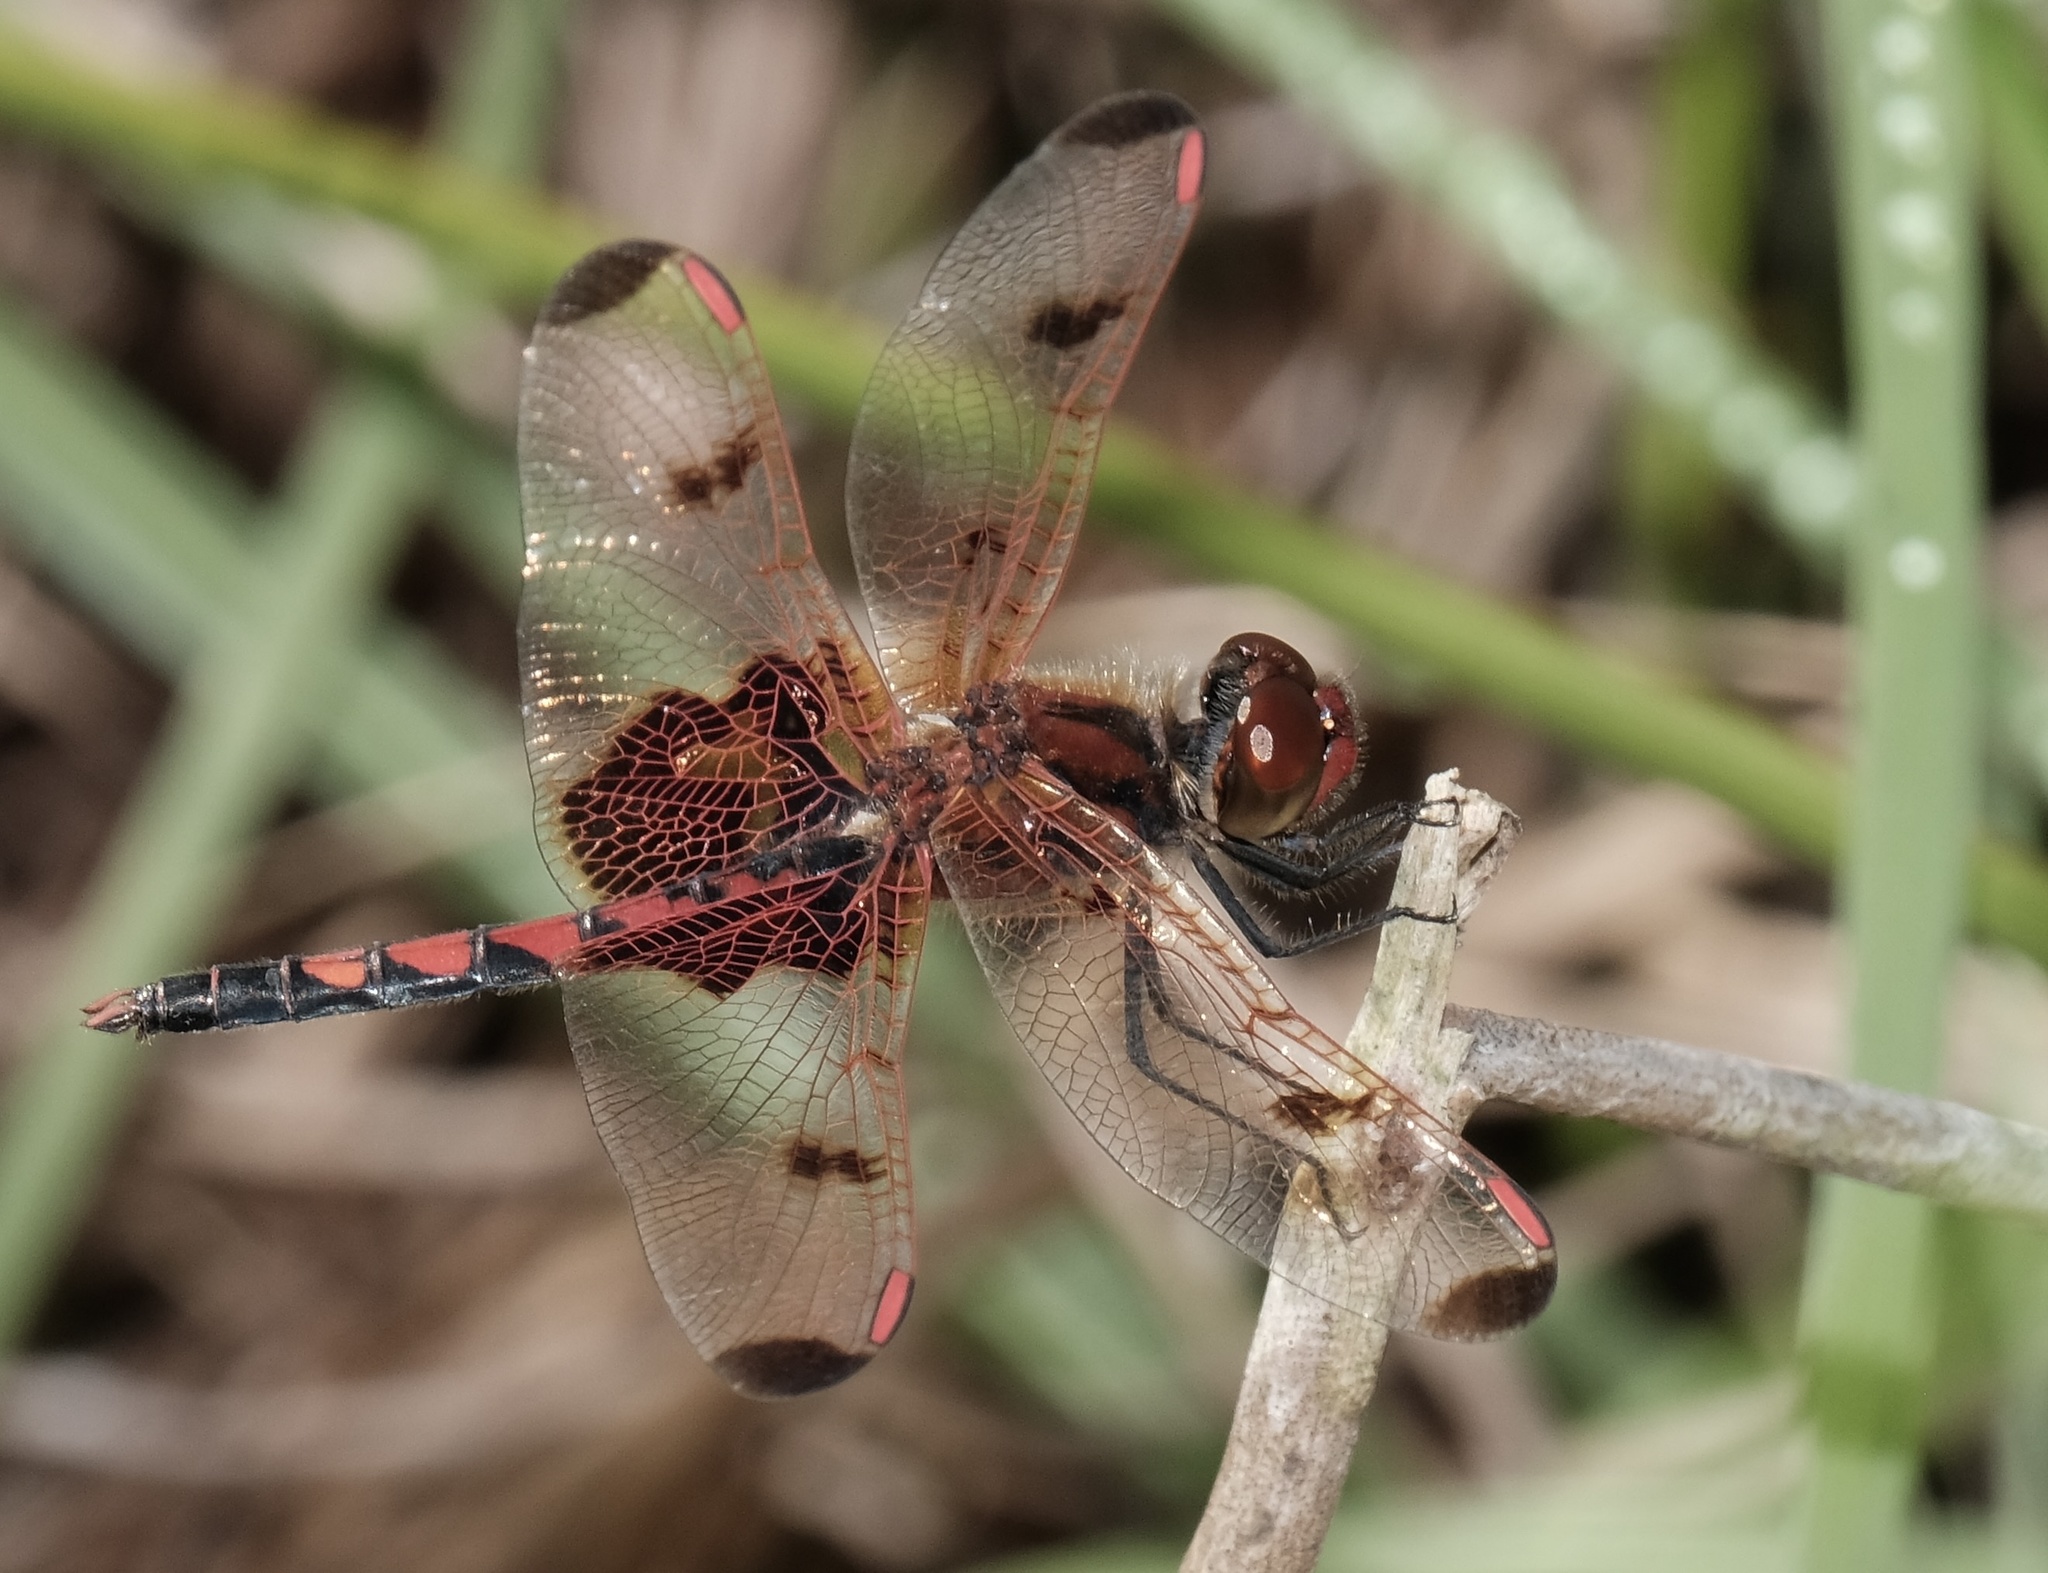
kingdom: Animalia
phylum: Arthropoda
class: Insecta
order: Odonata
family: Libellulidae
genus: Celithemis
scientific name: Celithemis elisa
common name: Calico pennant
